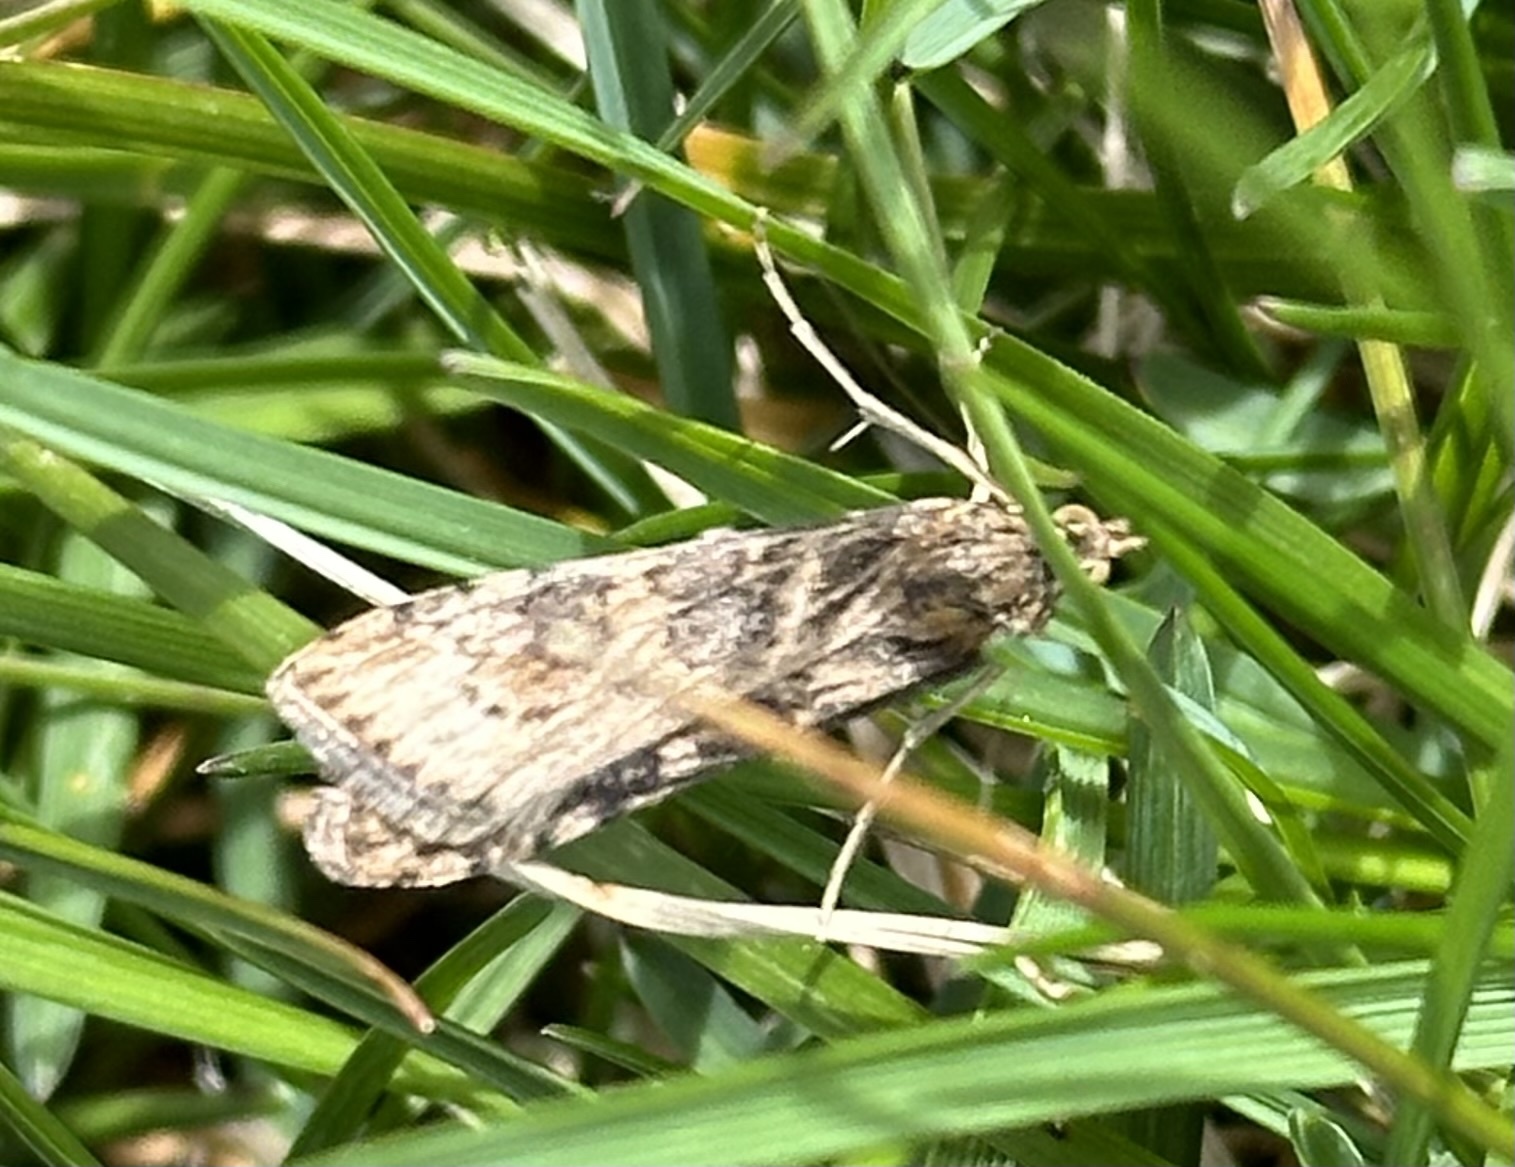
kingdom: Animalia
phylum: Arthropoda
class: Insecta
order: Lepidoptera
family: Crambidae
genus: Nomophila
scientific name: Nomophila nearctica
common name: American rush veneer
